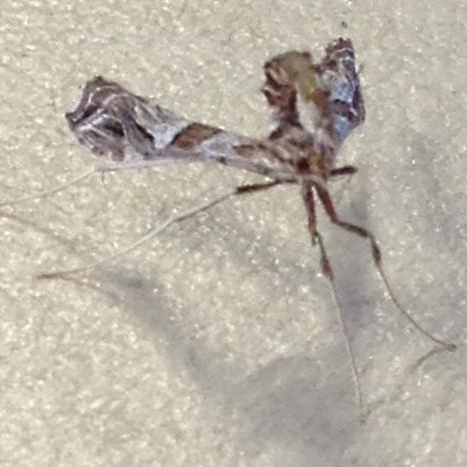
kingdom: Animalia
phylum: Arthropoda
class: Insecta
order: Lepidoptera
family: Crambidae
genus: Lineodes
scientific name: Lineodes interrupta
